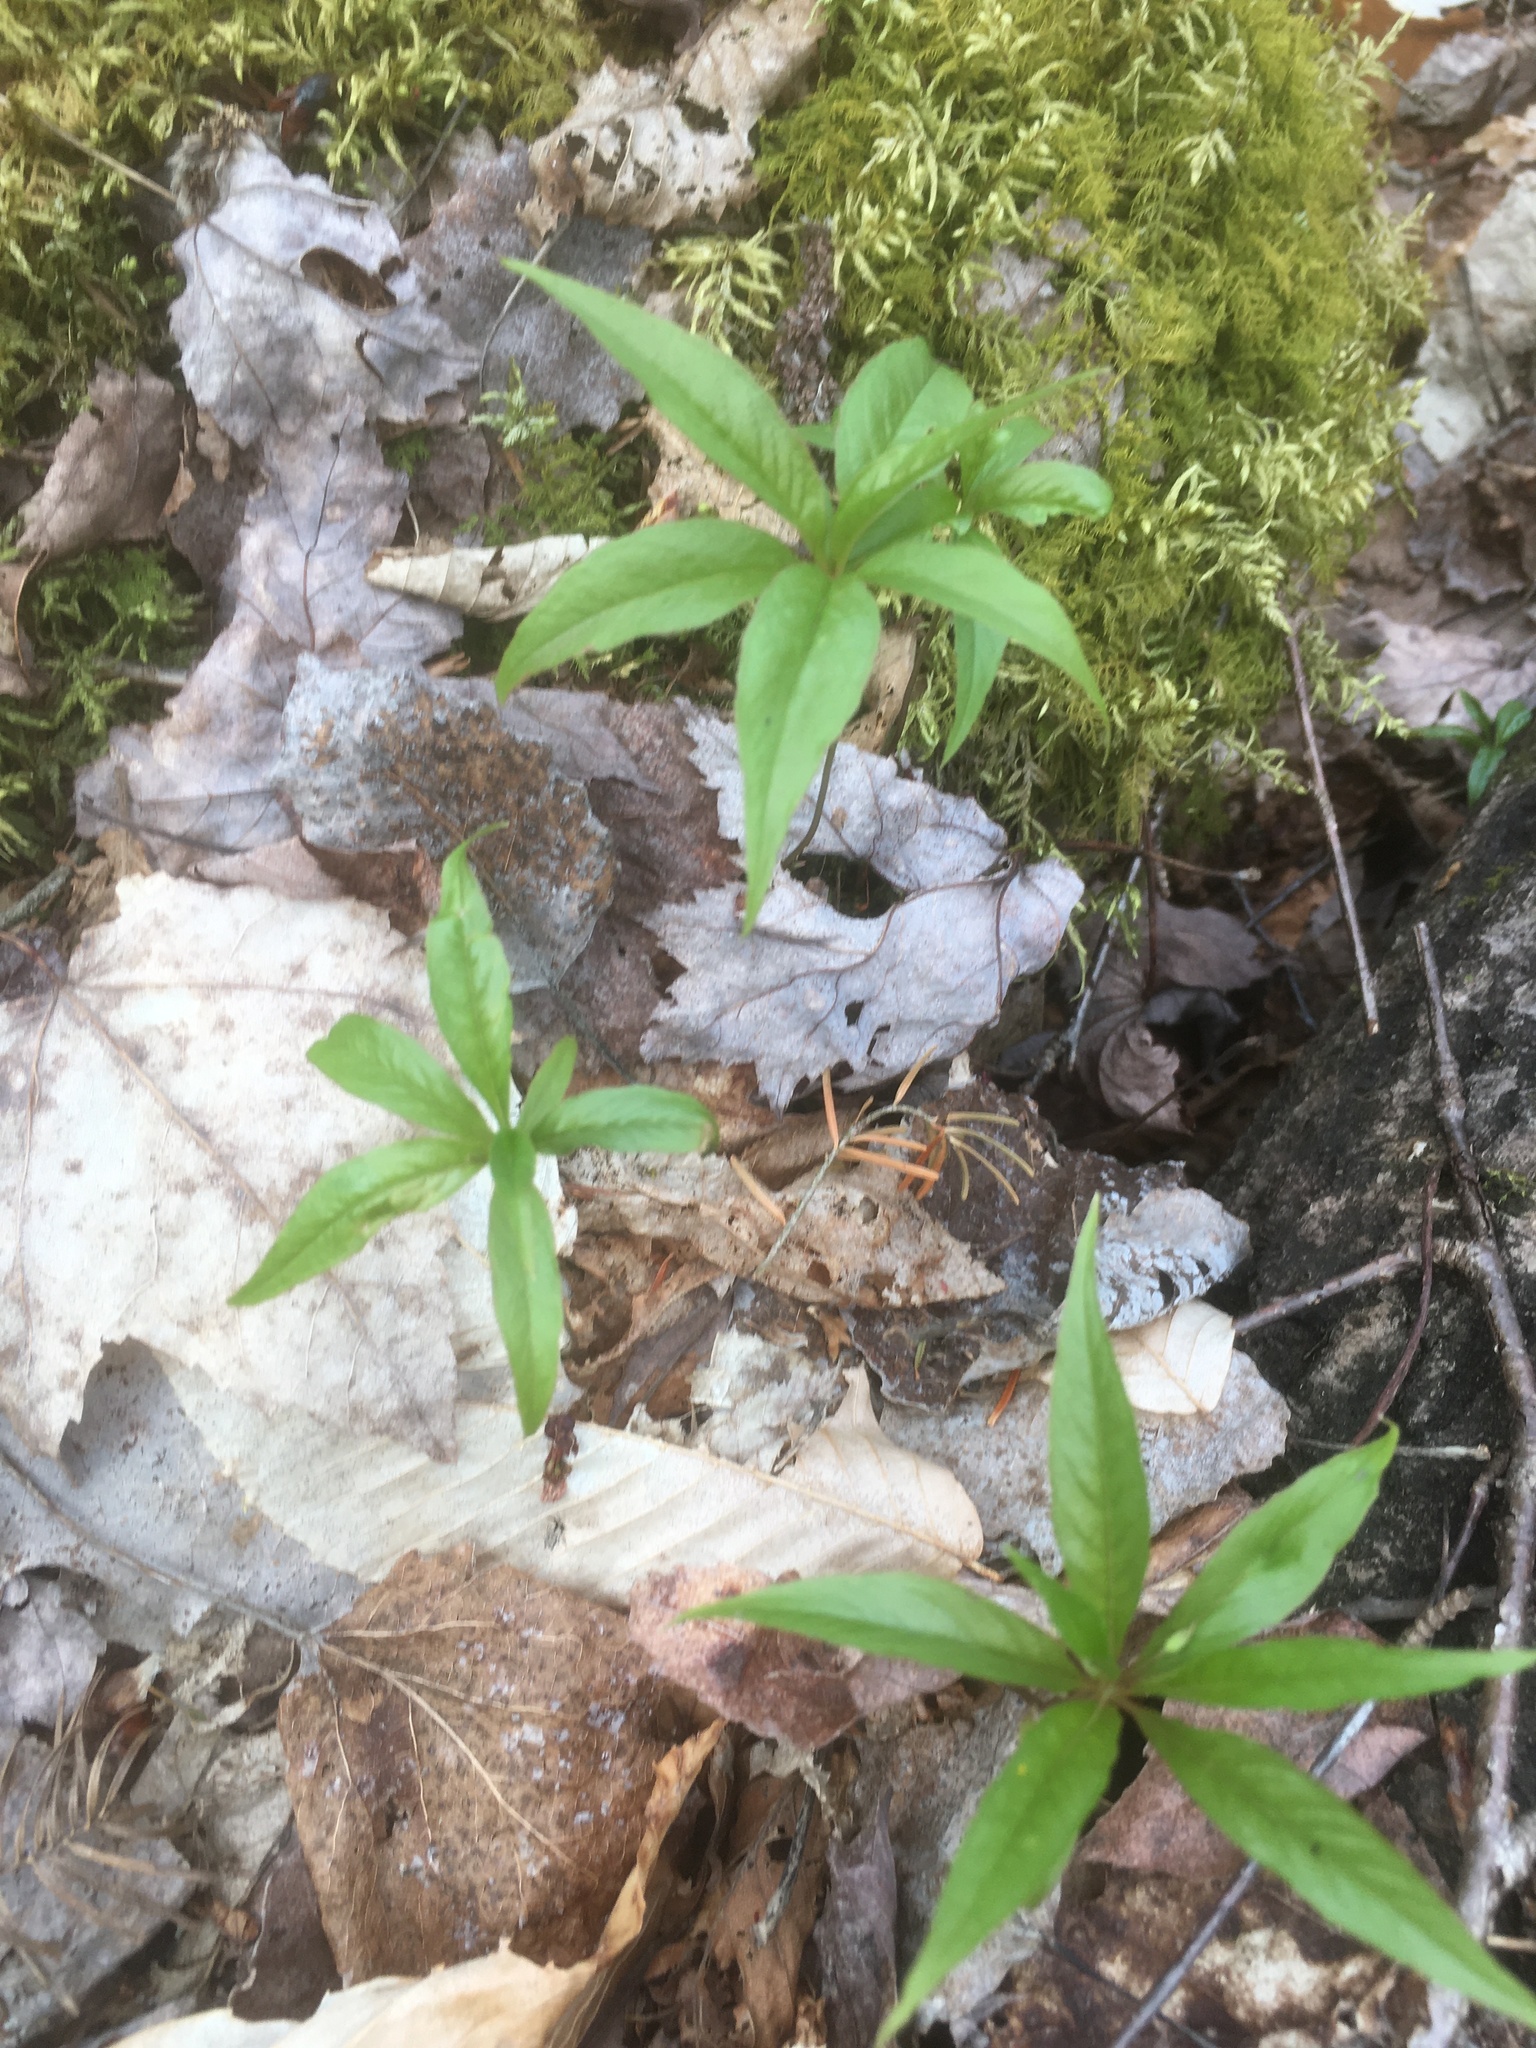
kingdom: Plantae
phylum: Tracheophyta
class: Magnoliopsida
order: Ericales
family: Primulaceae
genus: Lysimachia
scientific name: Lysimachia borealis
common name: American starflower
